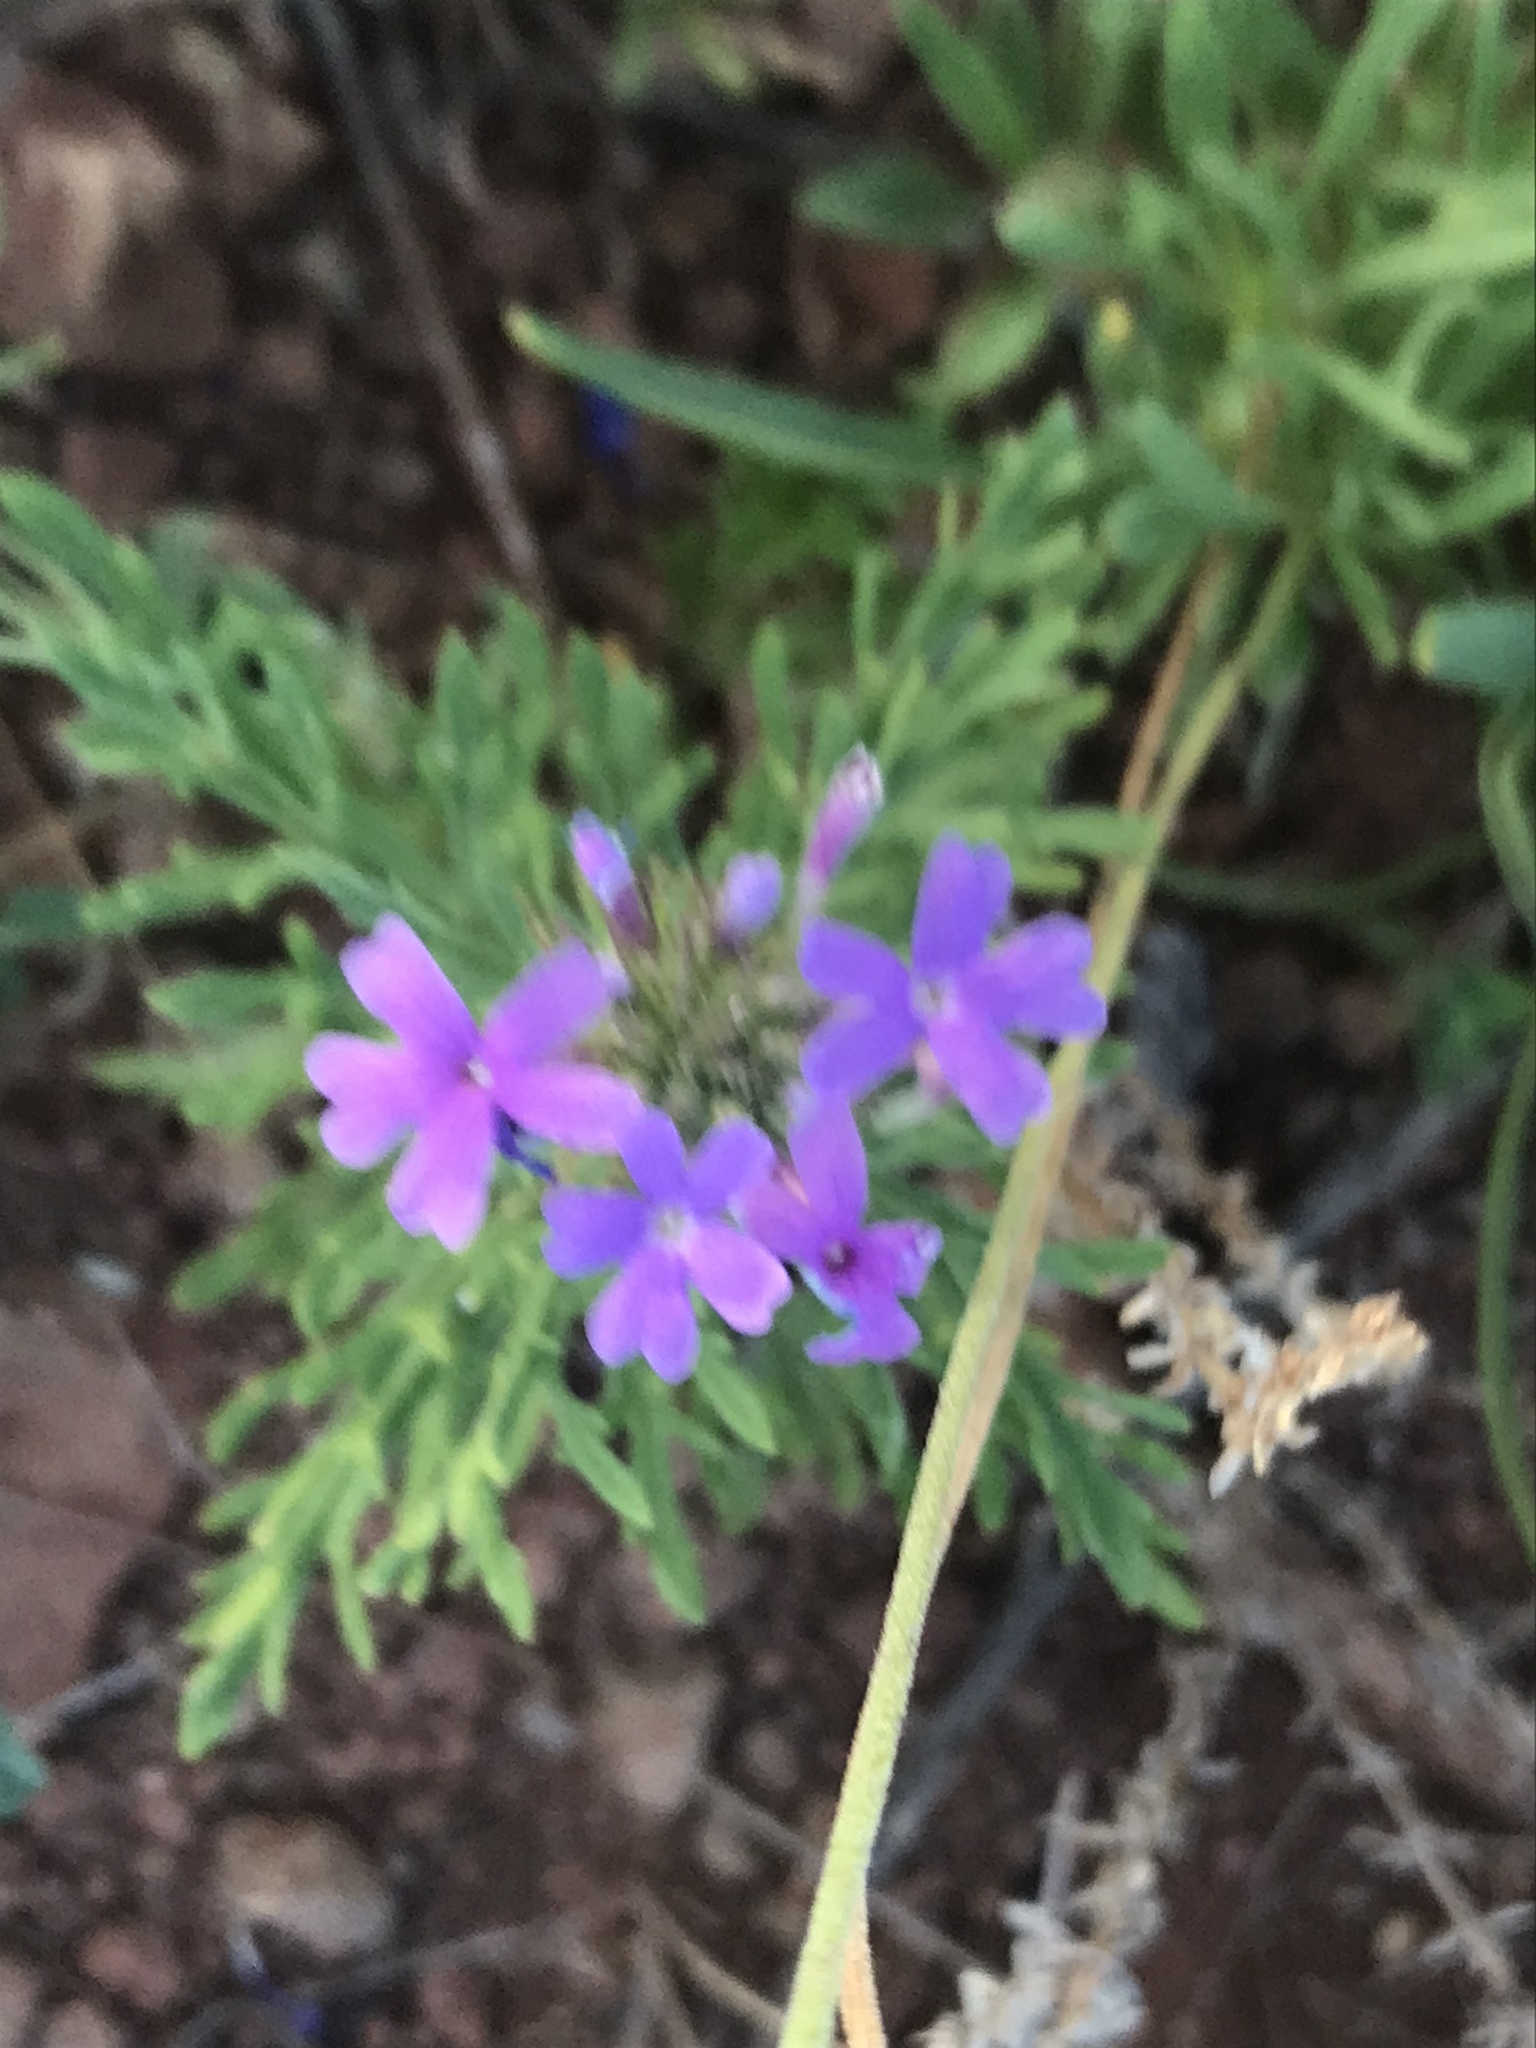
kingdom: Plantae
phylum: Tracheophyta
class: Magnoliopsida
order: Lamiales
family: Verbenaceae
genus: Verbena
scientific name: Verbena bipinnatifida
